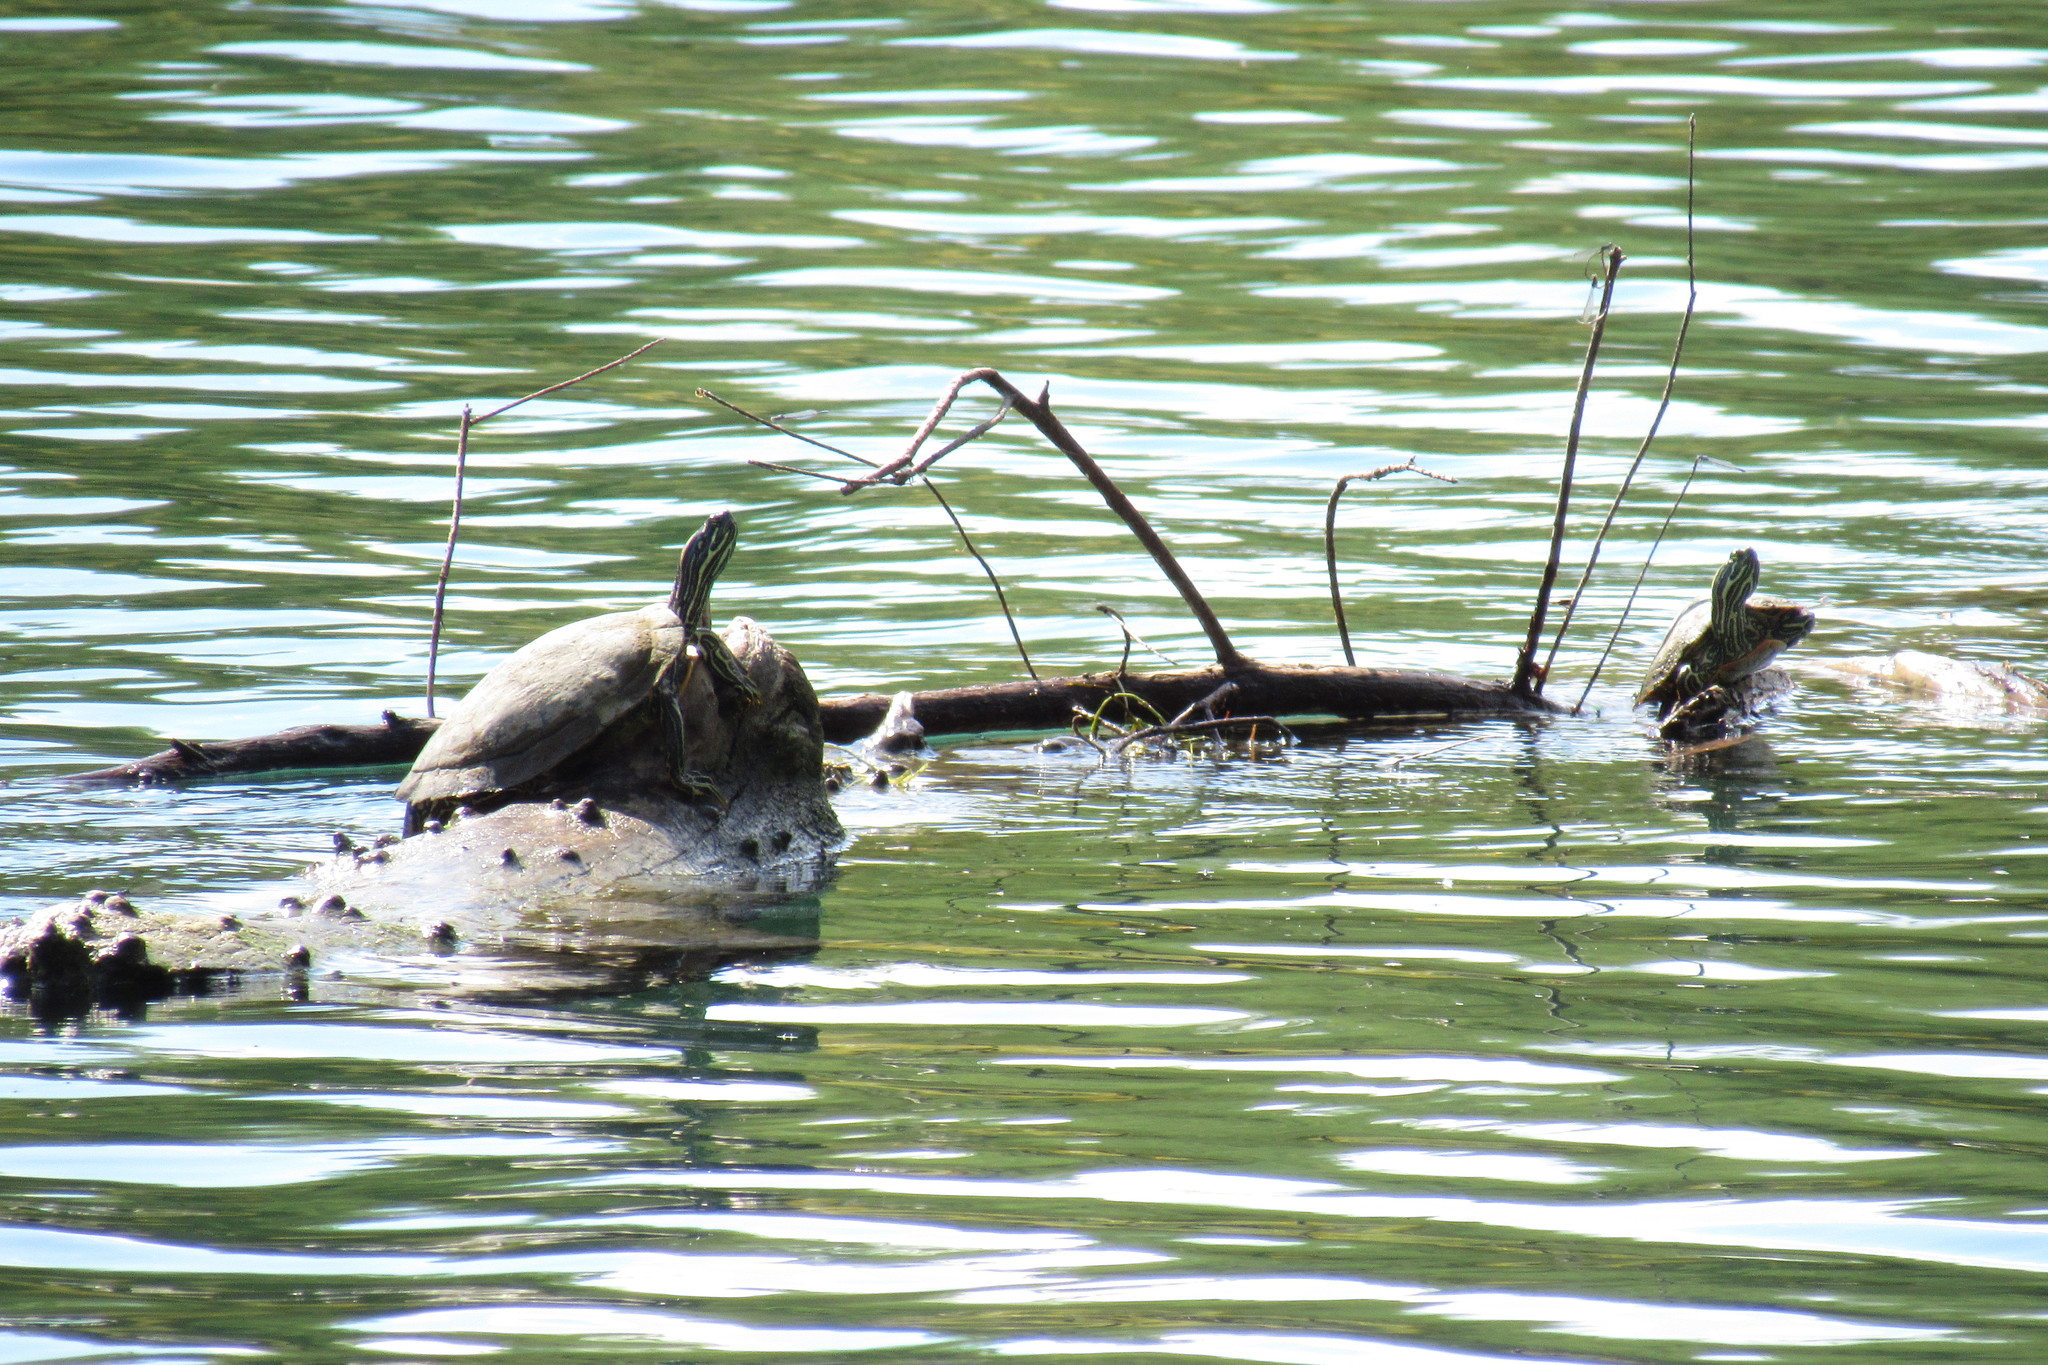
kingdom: Animalia
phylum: Chordata
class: Testudines
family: Emydidae
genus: Trachemys
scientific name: Trachemys scripta
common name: Slider
